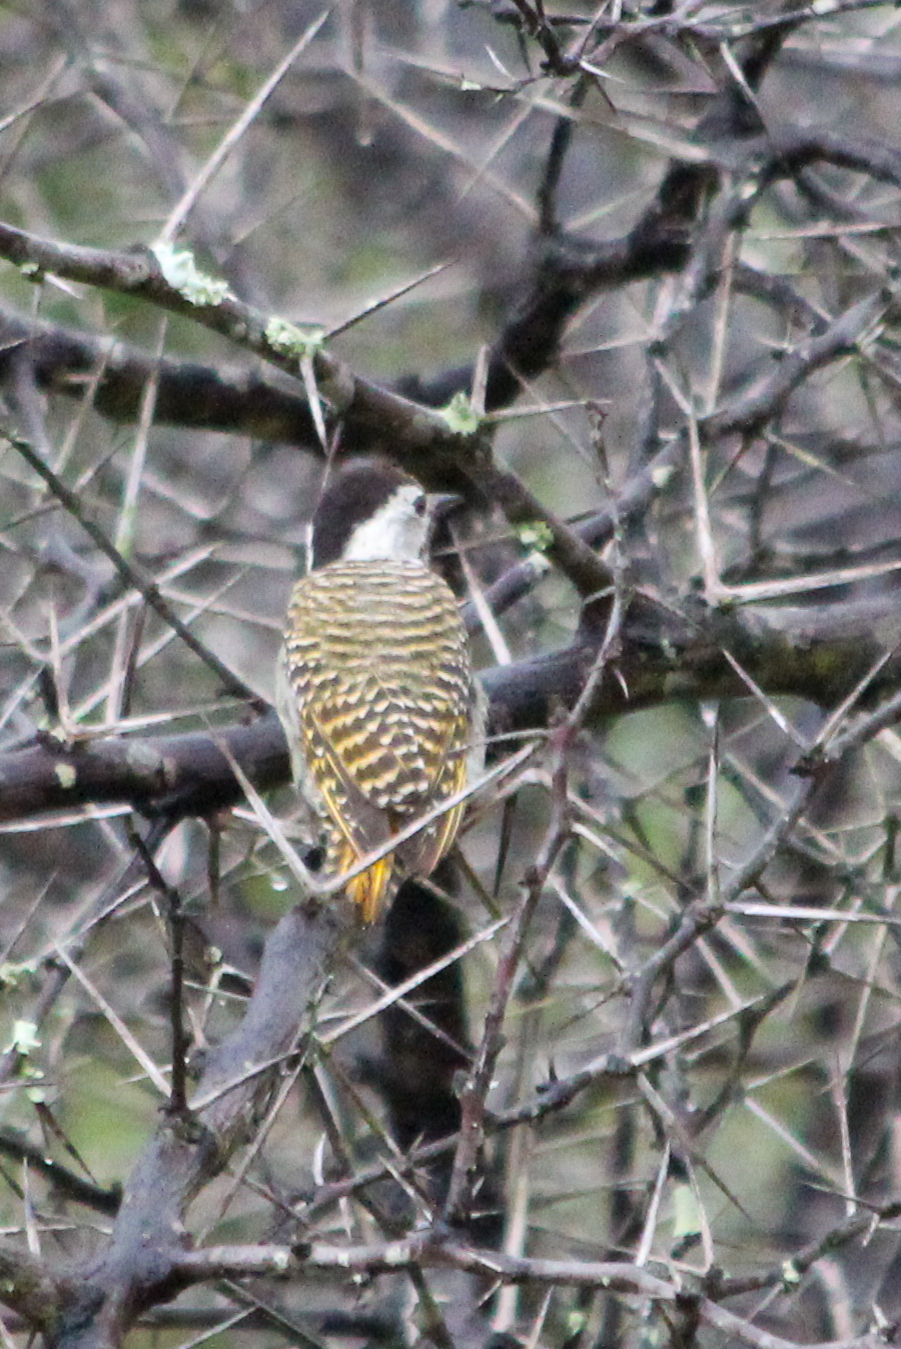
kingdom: Animalia
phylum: Chordata
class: Aves
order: Piciformes
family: Picidae
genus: Dendropicos
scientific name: Dendropicos fuscescens
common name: Cardinal woodpecker
